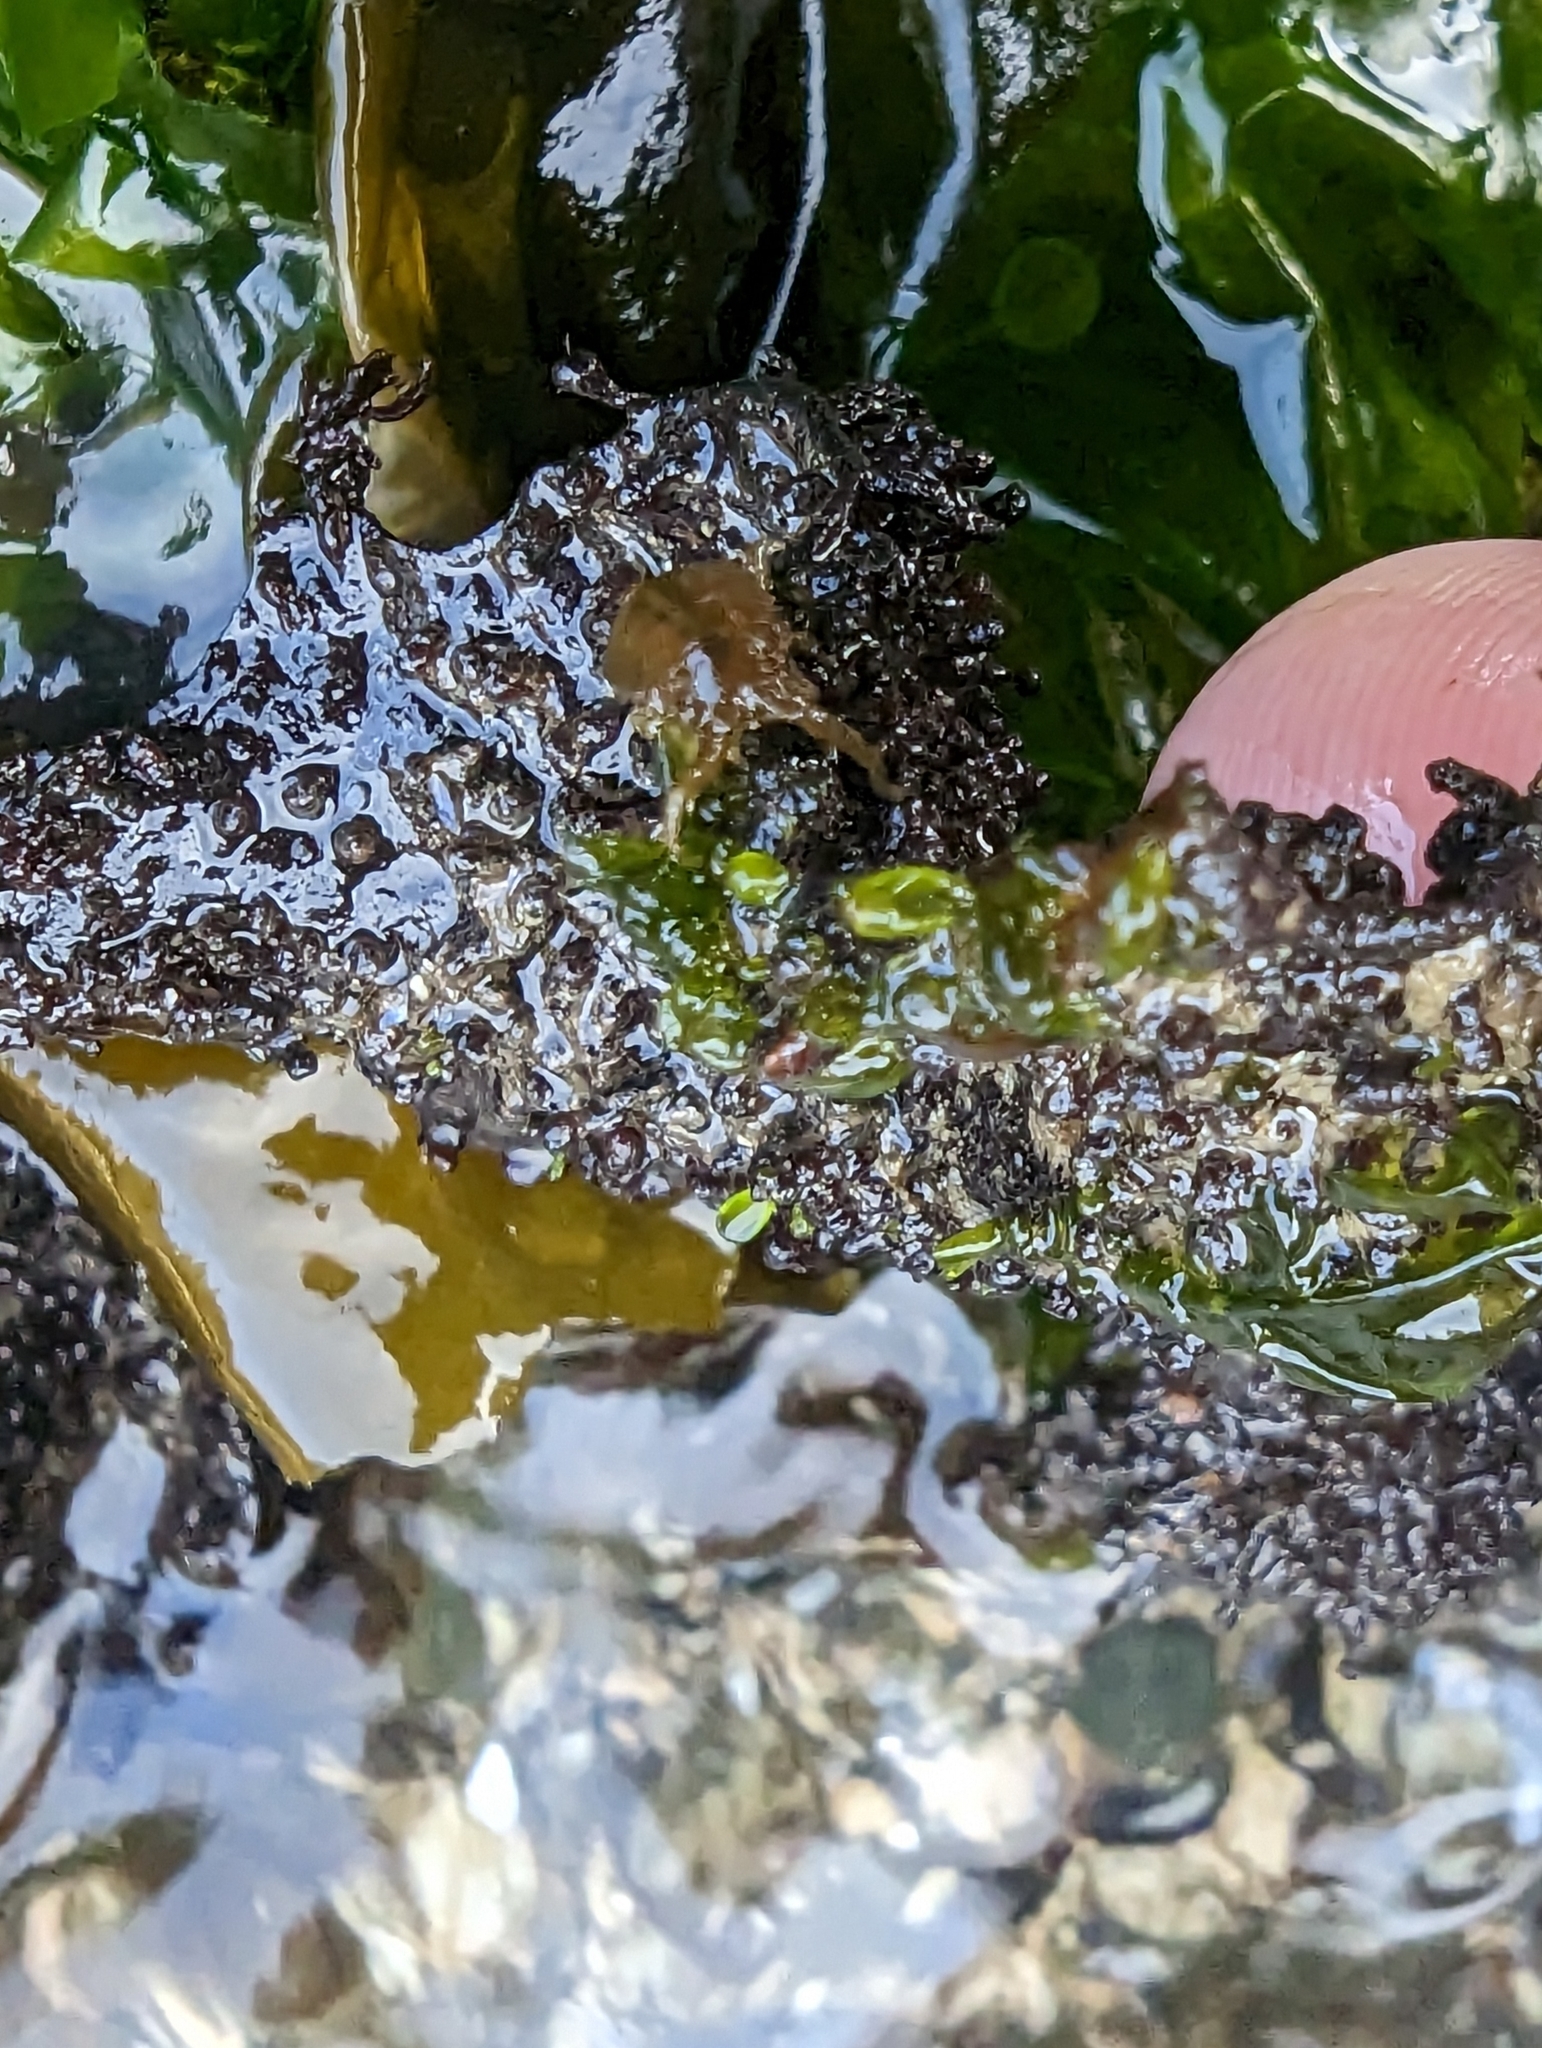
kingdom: Plantae
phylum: Rhodophyta
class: Florideophyceae
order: Gigartinales
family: Phyllophoraceae
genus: Mastocarpus
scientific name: Mastocarpus papillatus
